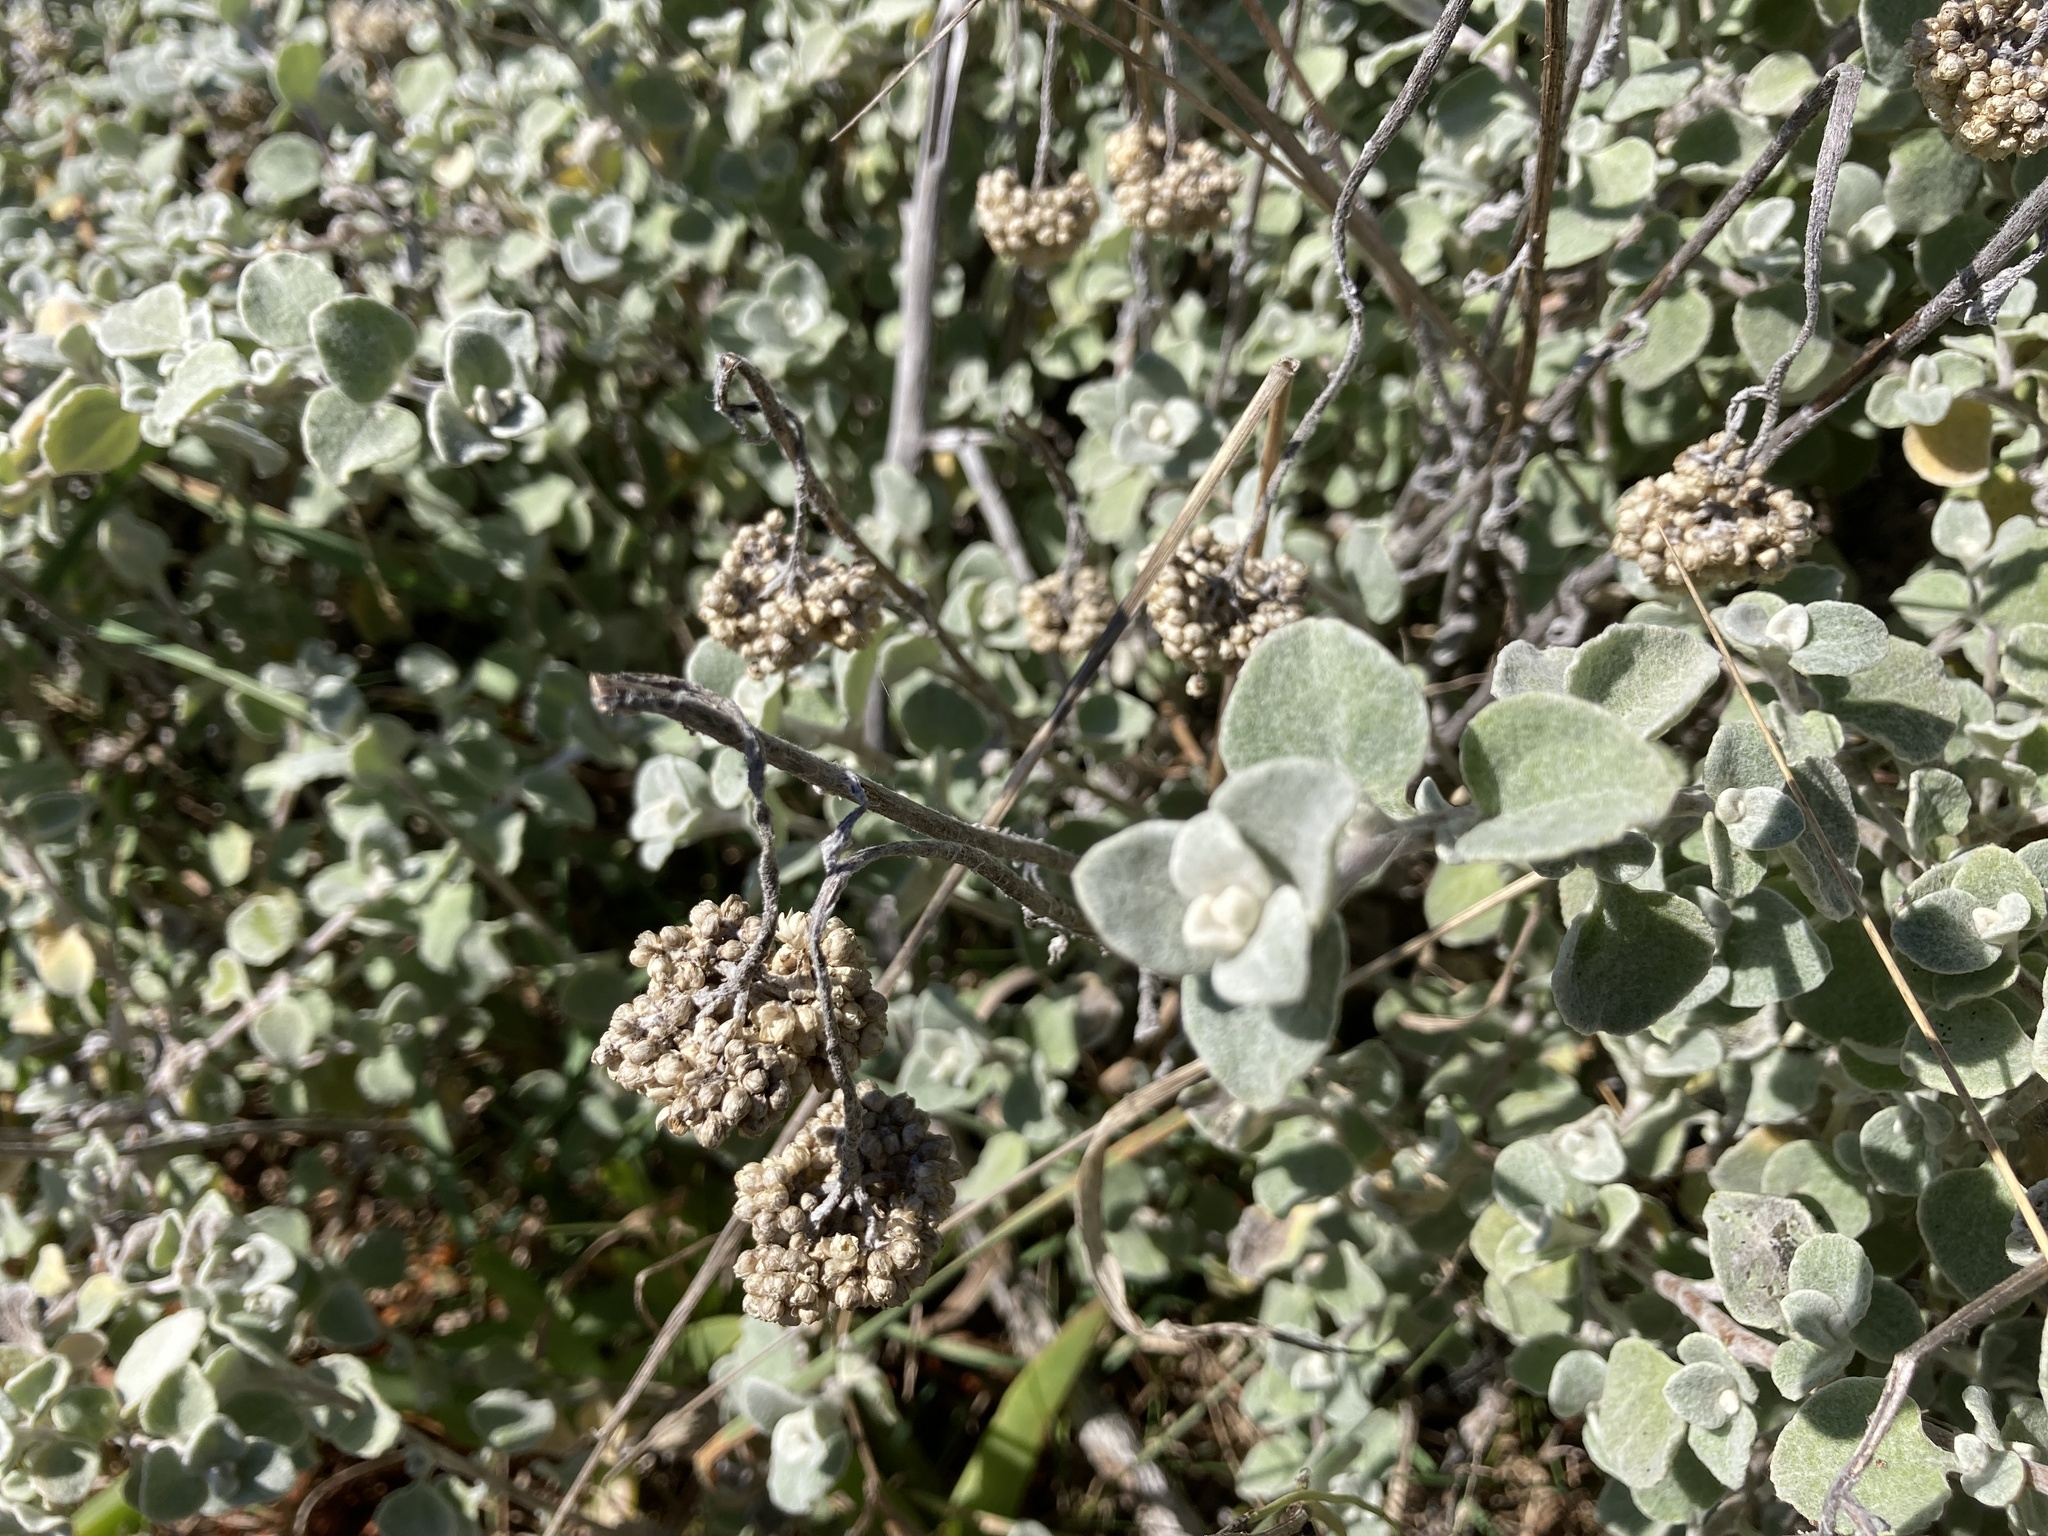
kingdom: Plantae
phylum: Tracheophyta
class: Magnoliopsida
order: Asterales
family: Asteraceae
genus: Helichrysum
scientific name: Helichrysum petiolare
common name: Licorice-plant
